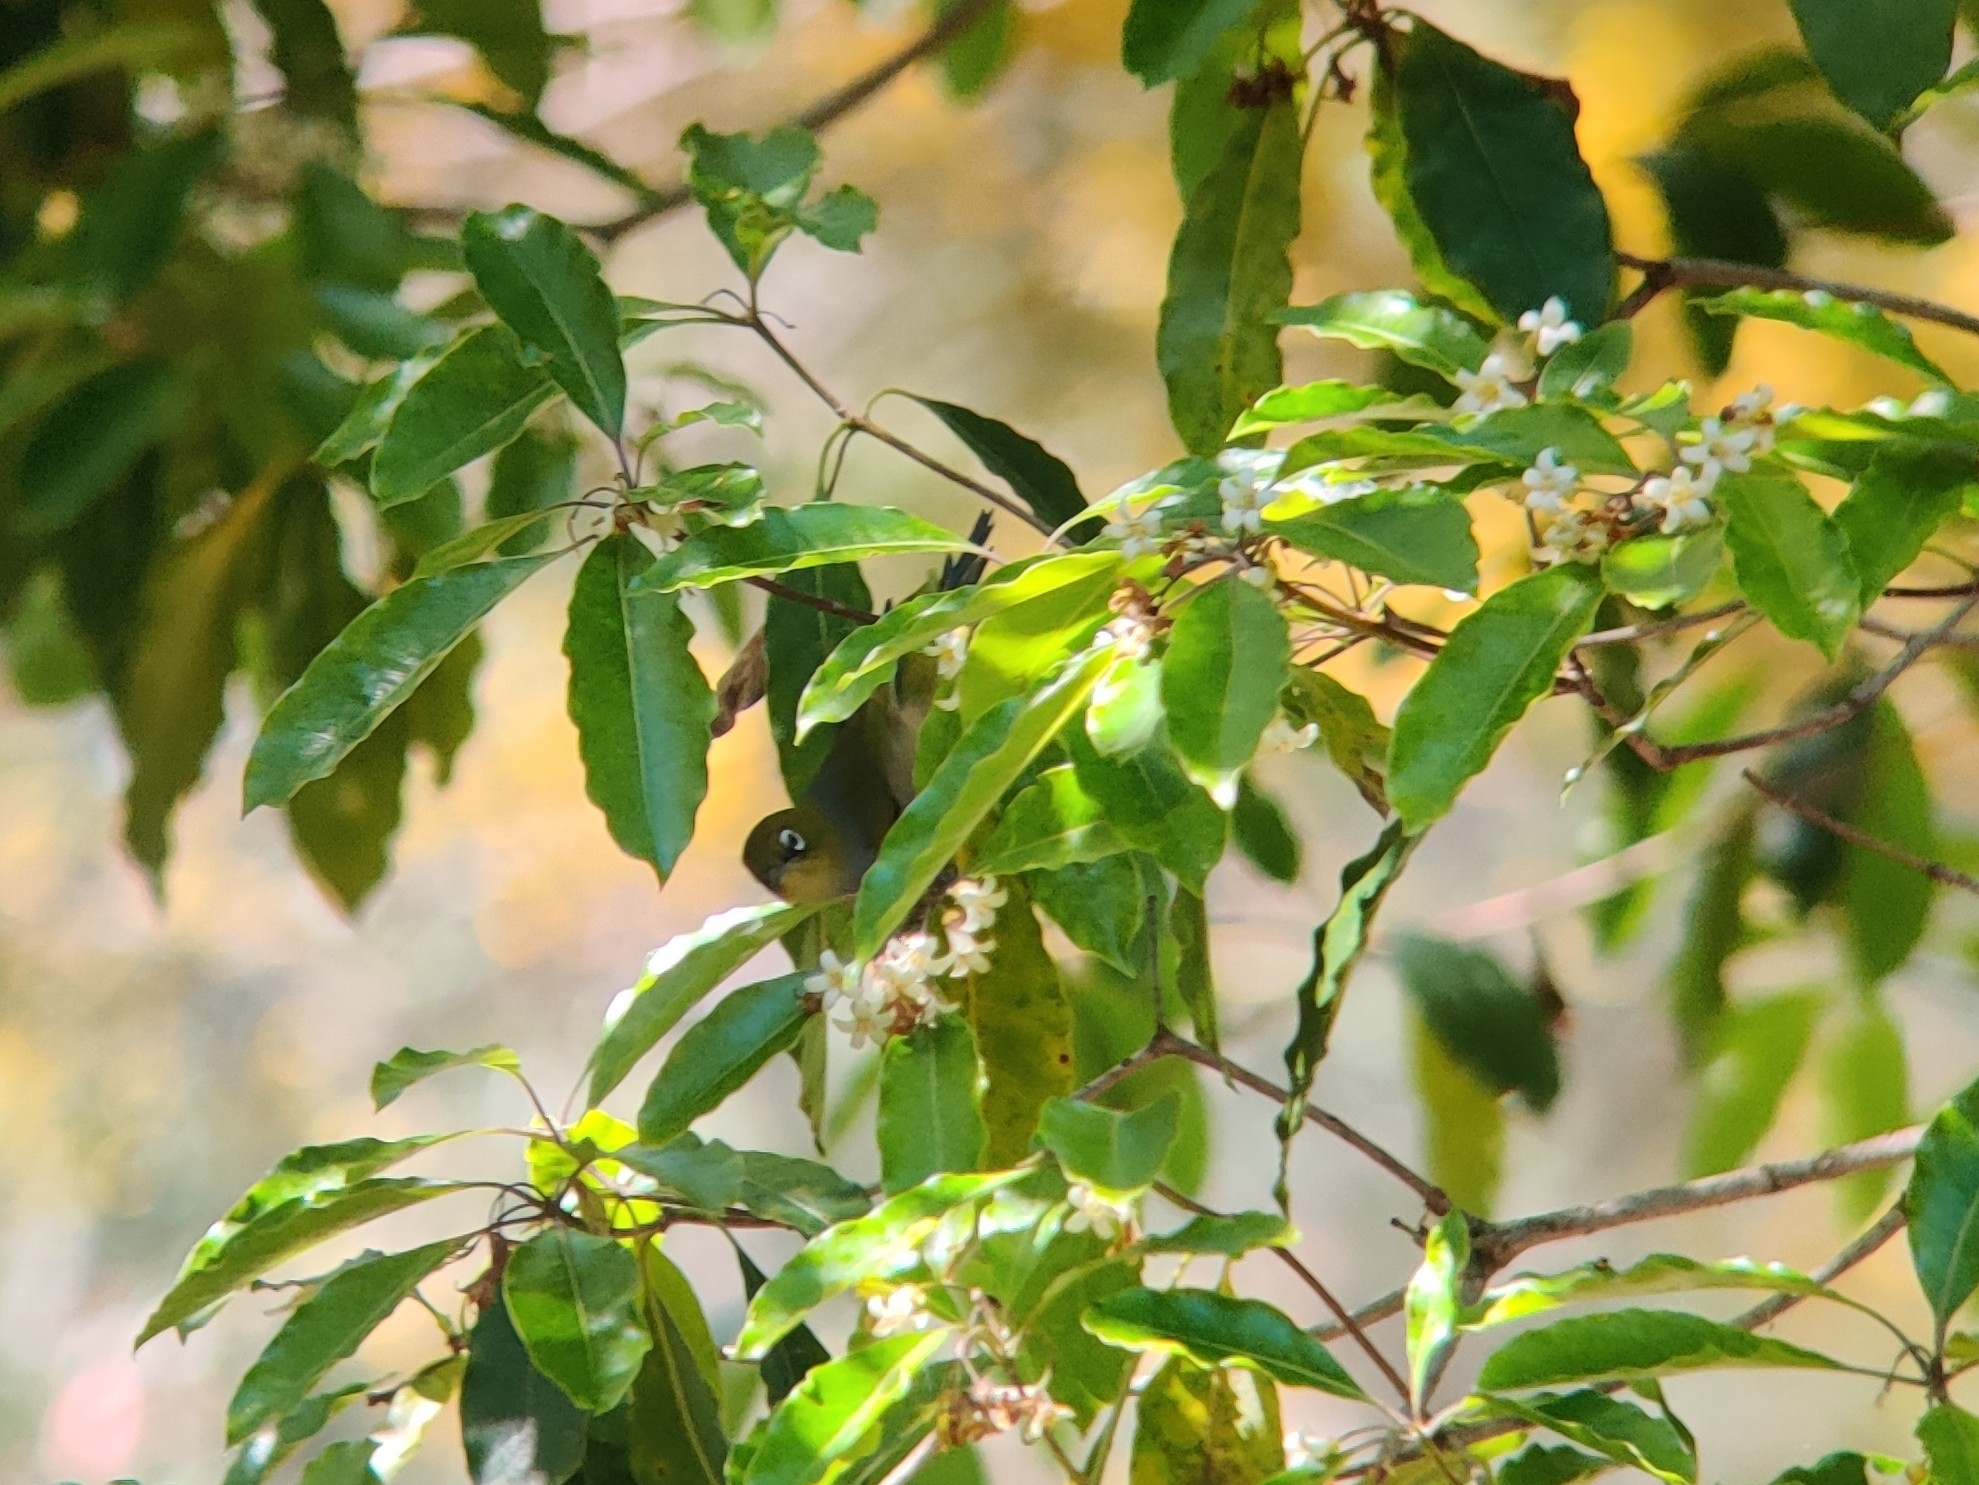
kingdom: Animalia
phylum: Chordata
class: Aves
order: Passeriformes
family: Zosteropidae
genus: Zosterops
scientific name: Zosterops lateralis
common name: Silvereye
